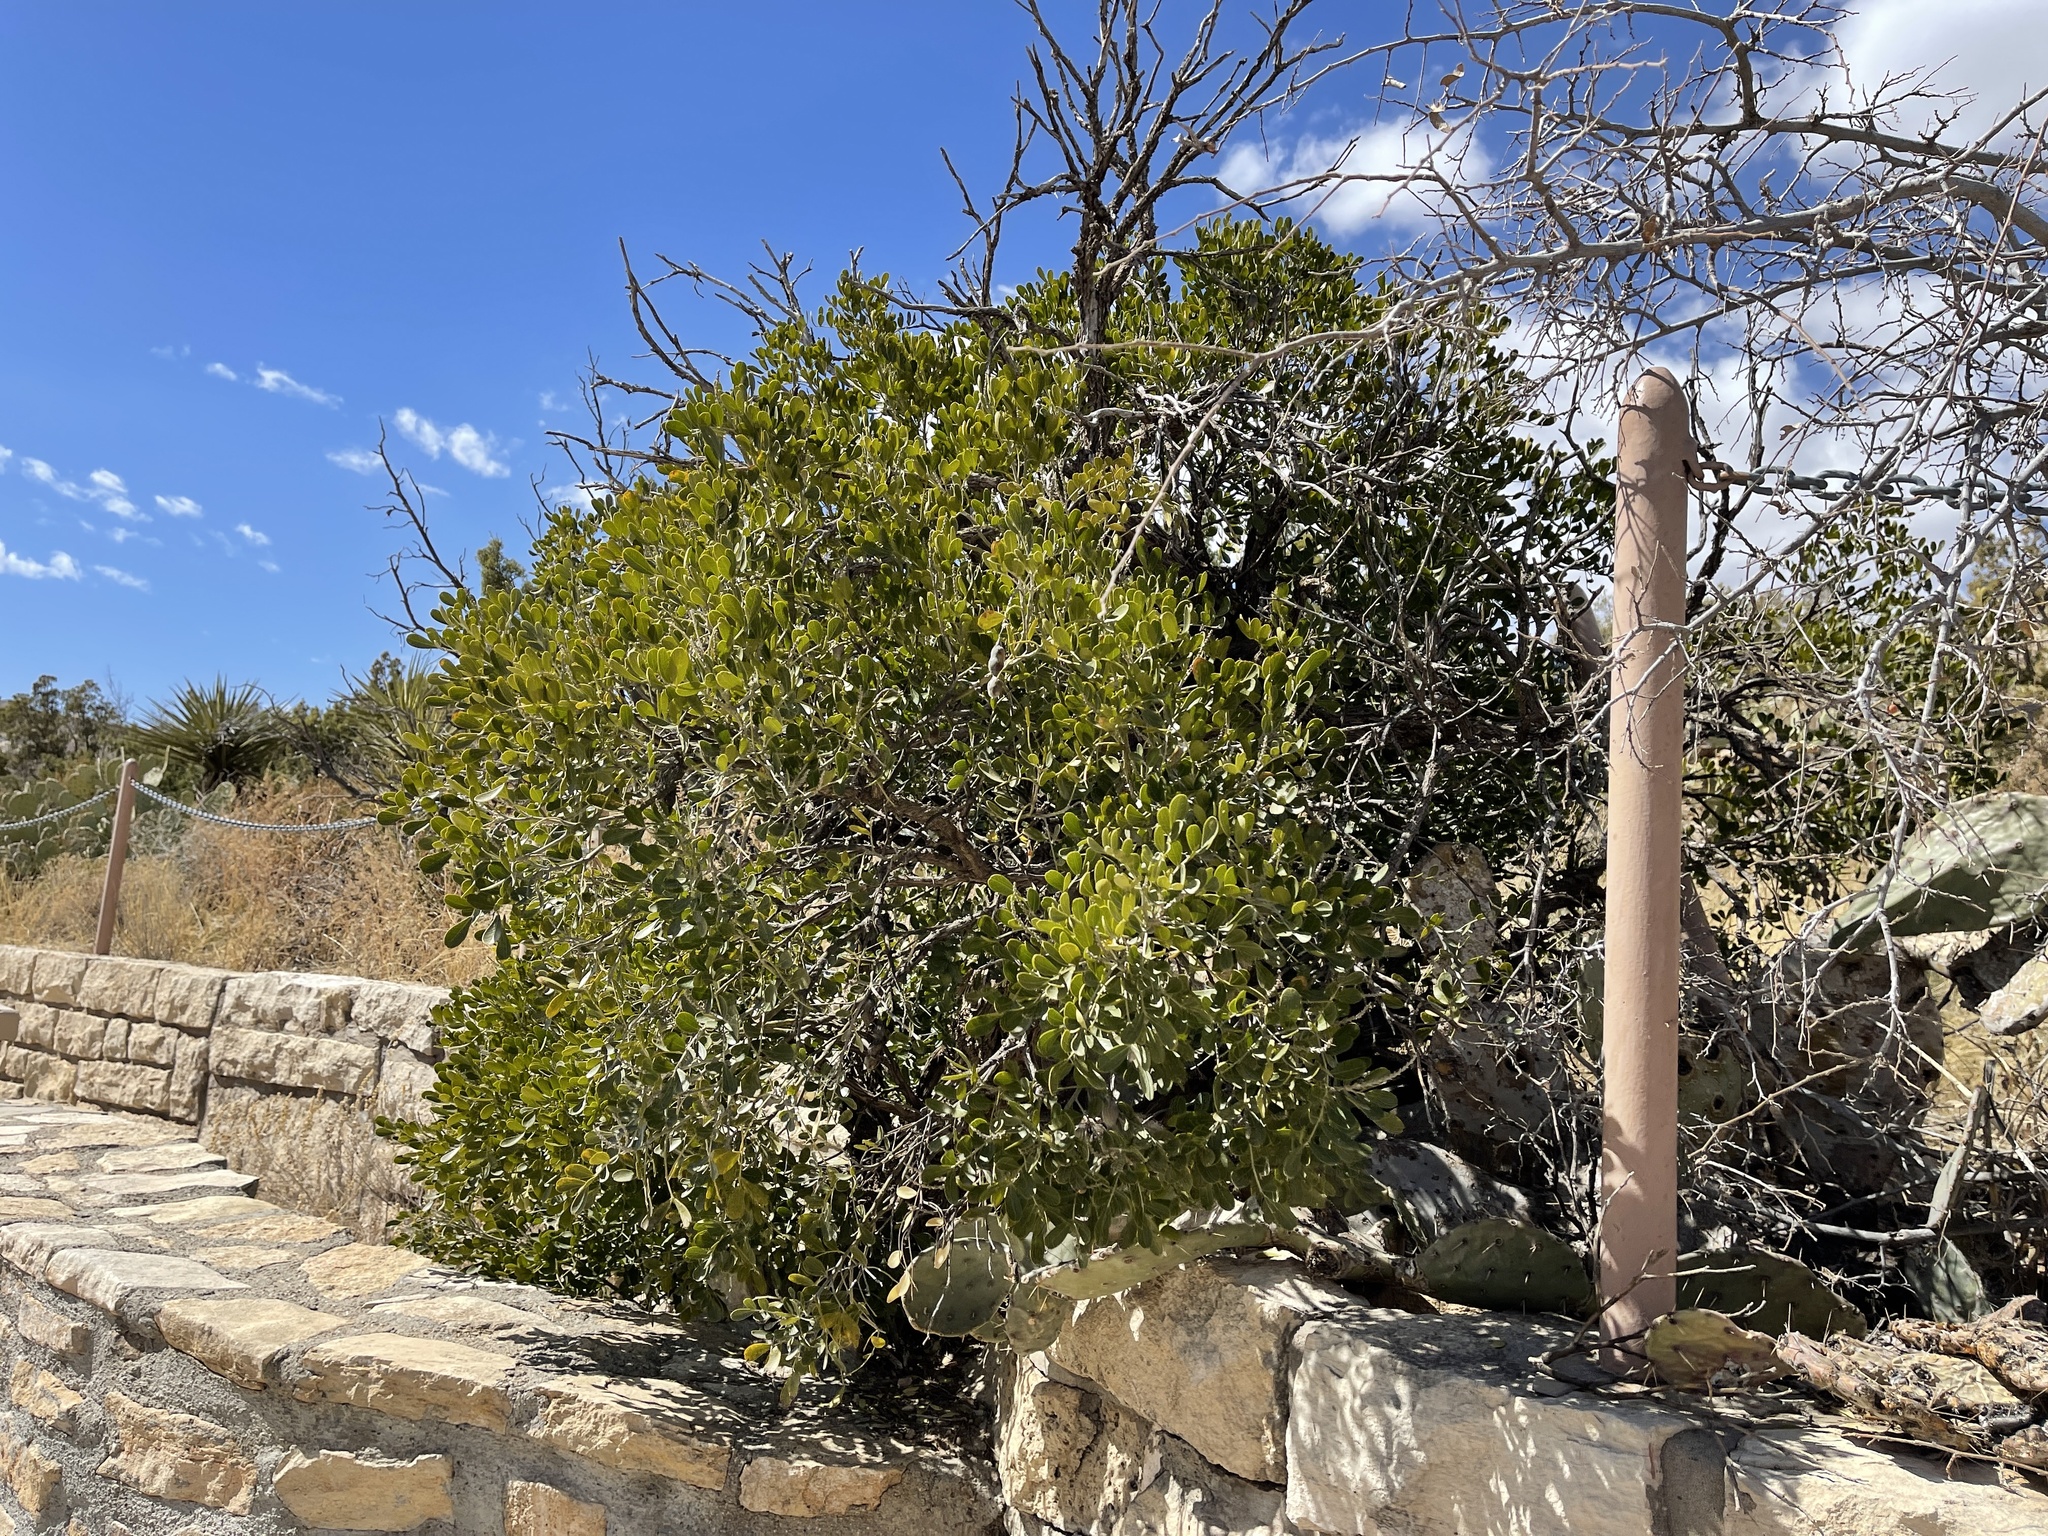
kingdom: Plantae
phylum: Tracheophyta
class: Magnoliopsida
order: Fabales
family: Fabaceae
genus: Dermatophyllum
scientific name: Dermatophyllum secundiflorum
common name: Texas-mountain-laurel
